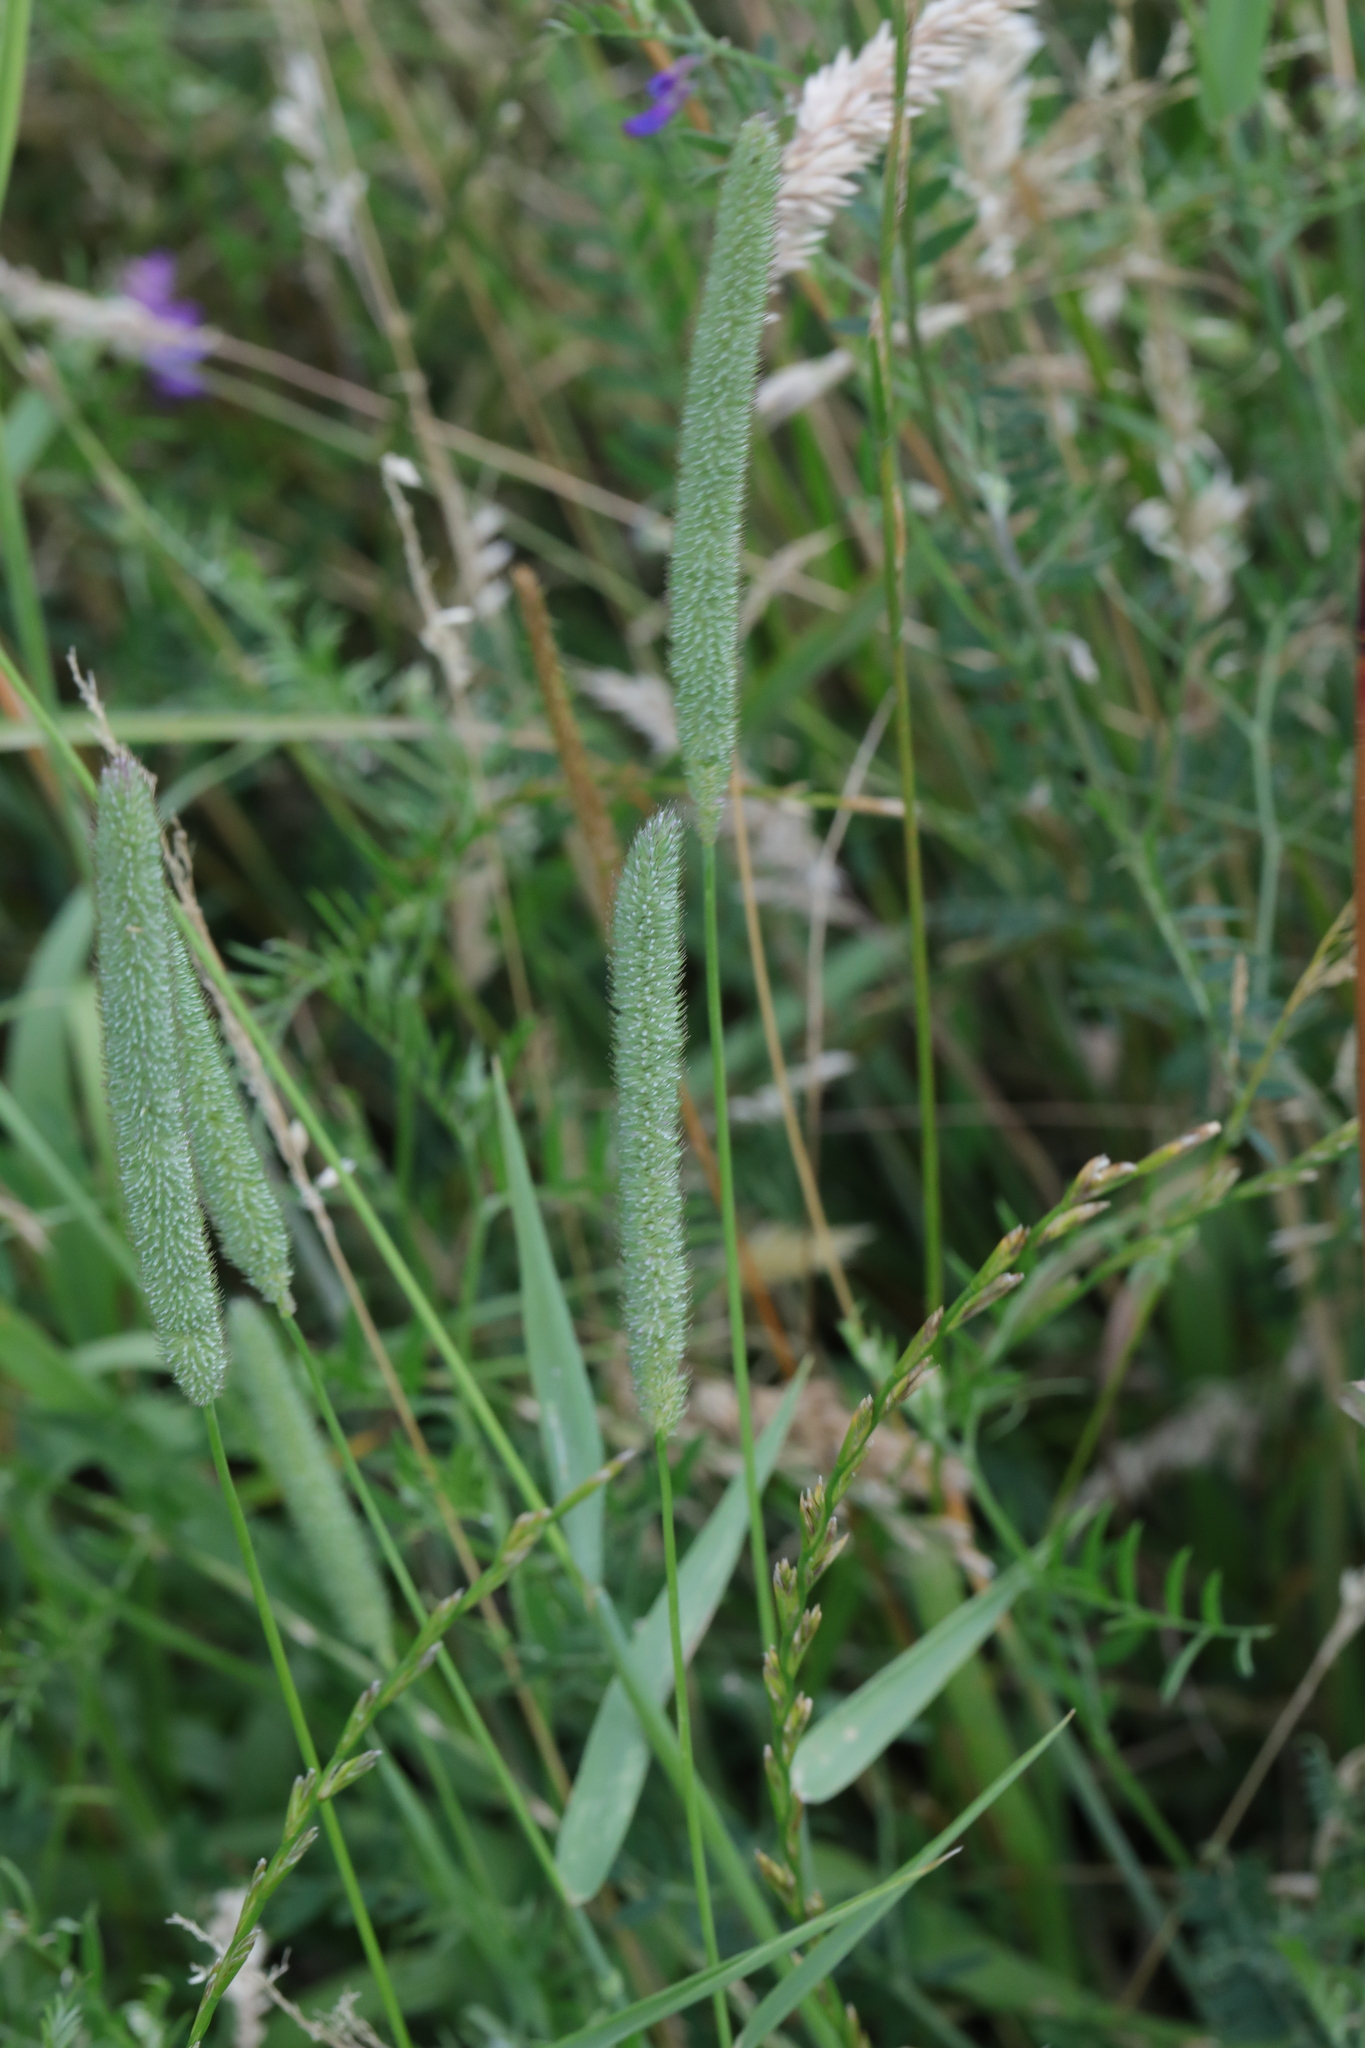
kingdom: Plantae
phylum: Tracheophyta
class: Liliopsida
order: Poales
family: Poaceae
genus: Phleum
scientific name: Phleum pratense
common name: Timothy grass
